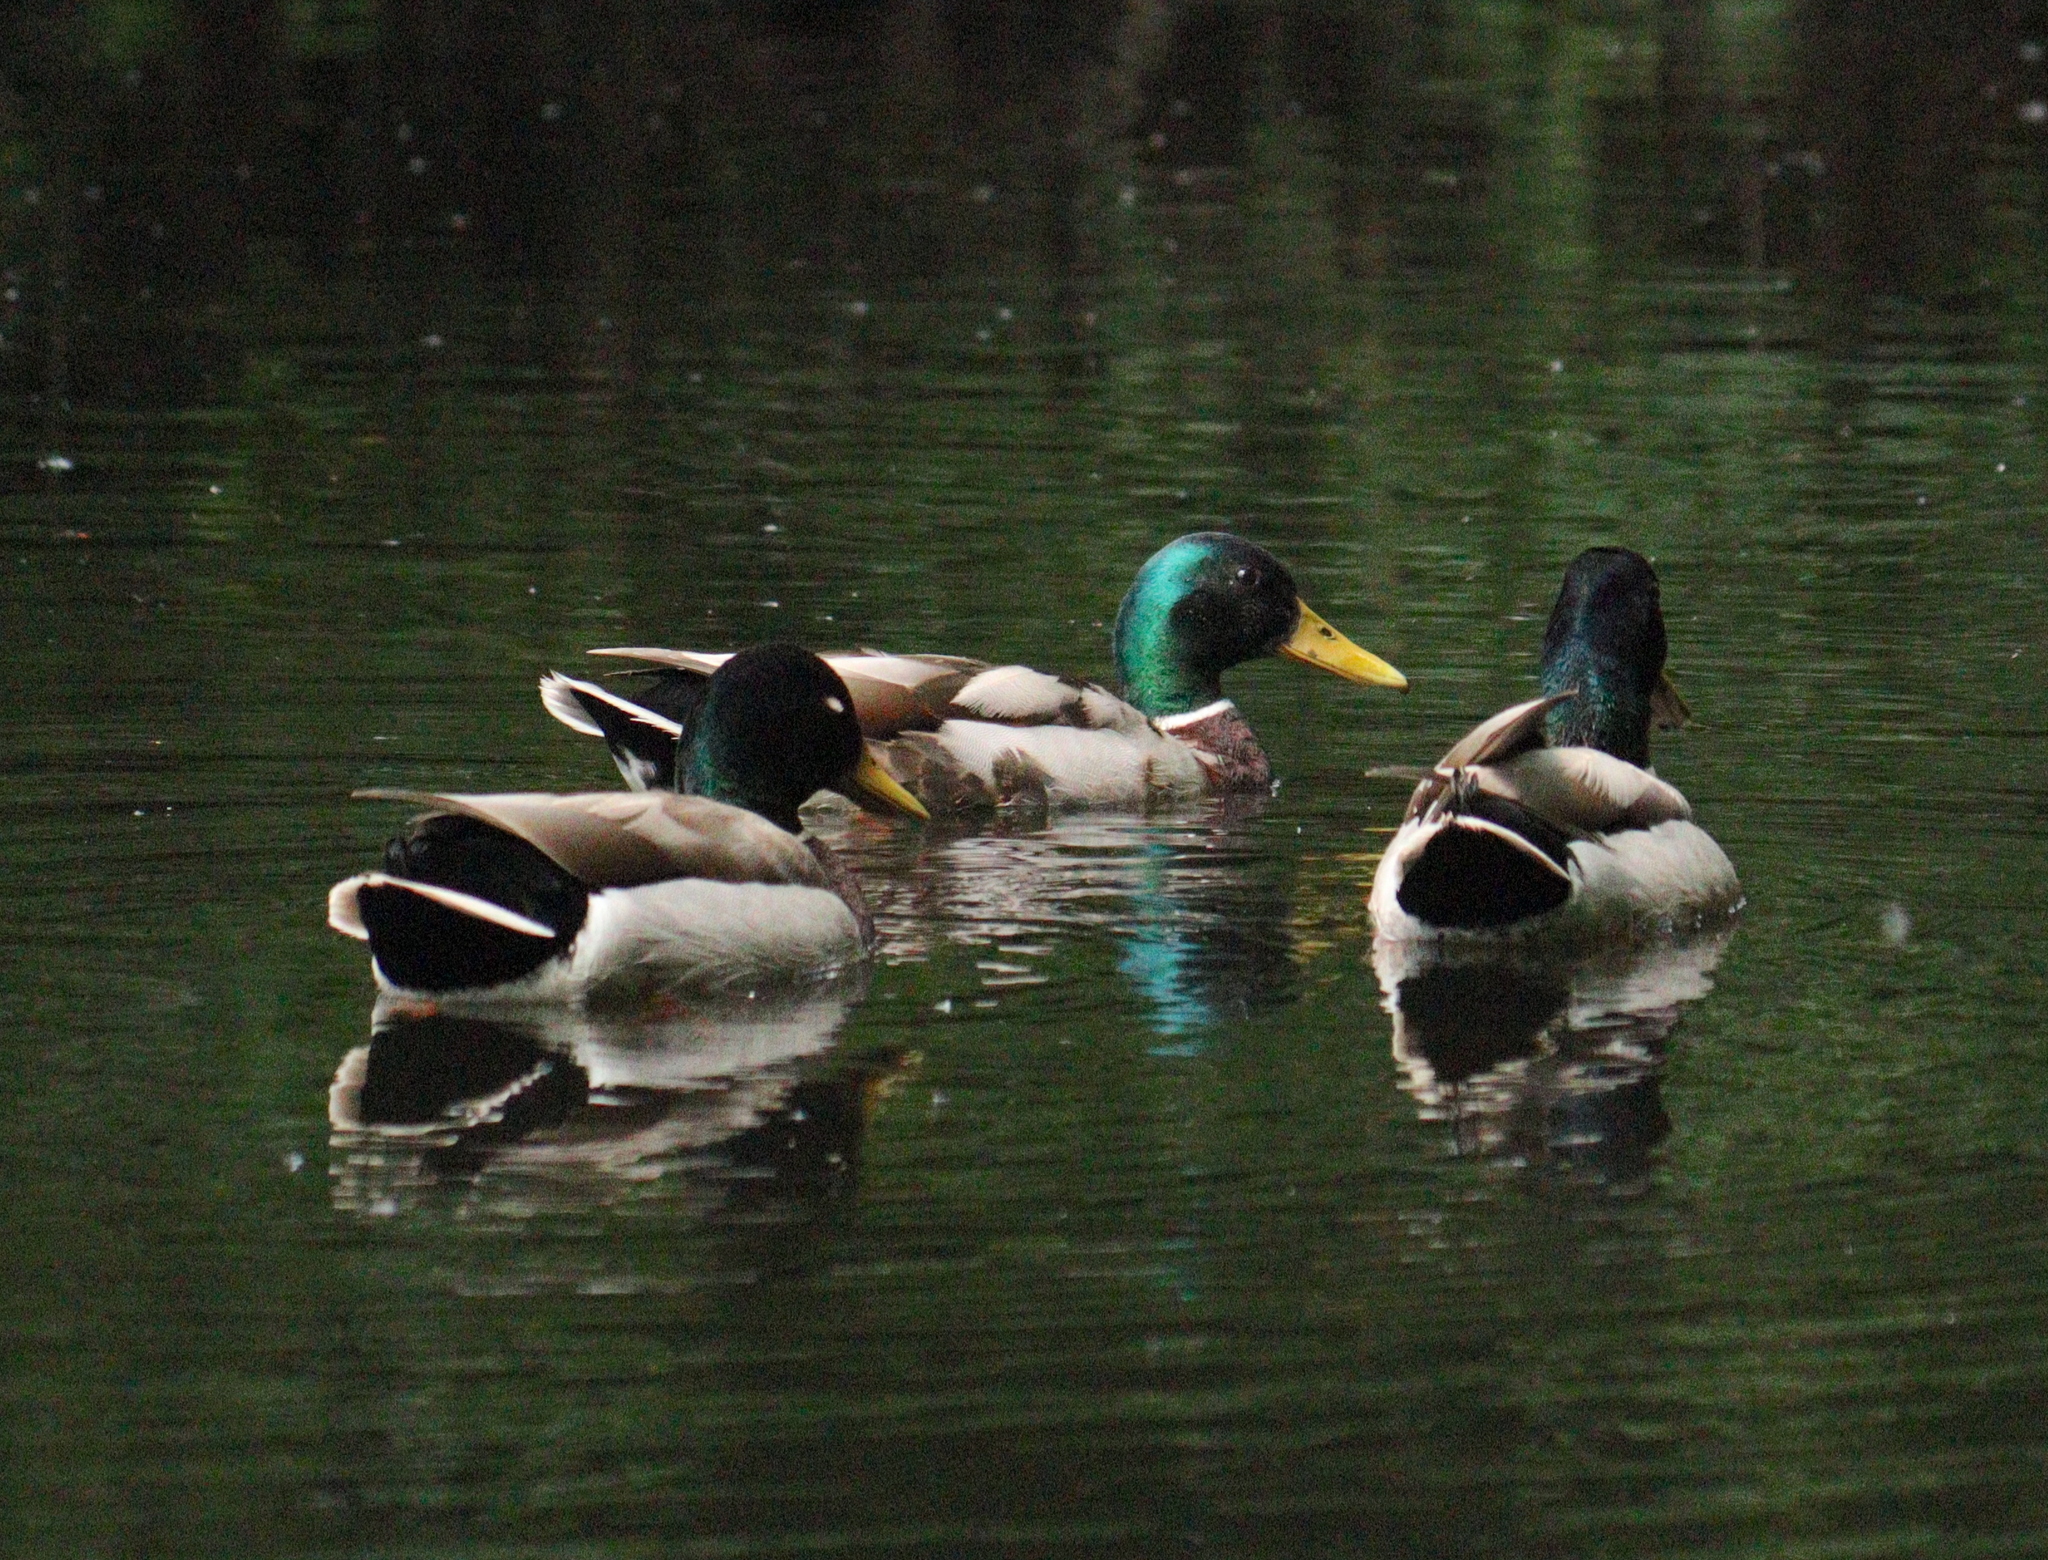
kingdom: Animalia
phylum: Chordata
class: Aves
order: Anseriformes
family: Anatidae
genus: Anas
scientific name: Anas platyrhynchos
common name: Mallard
